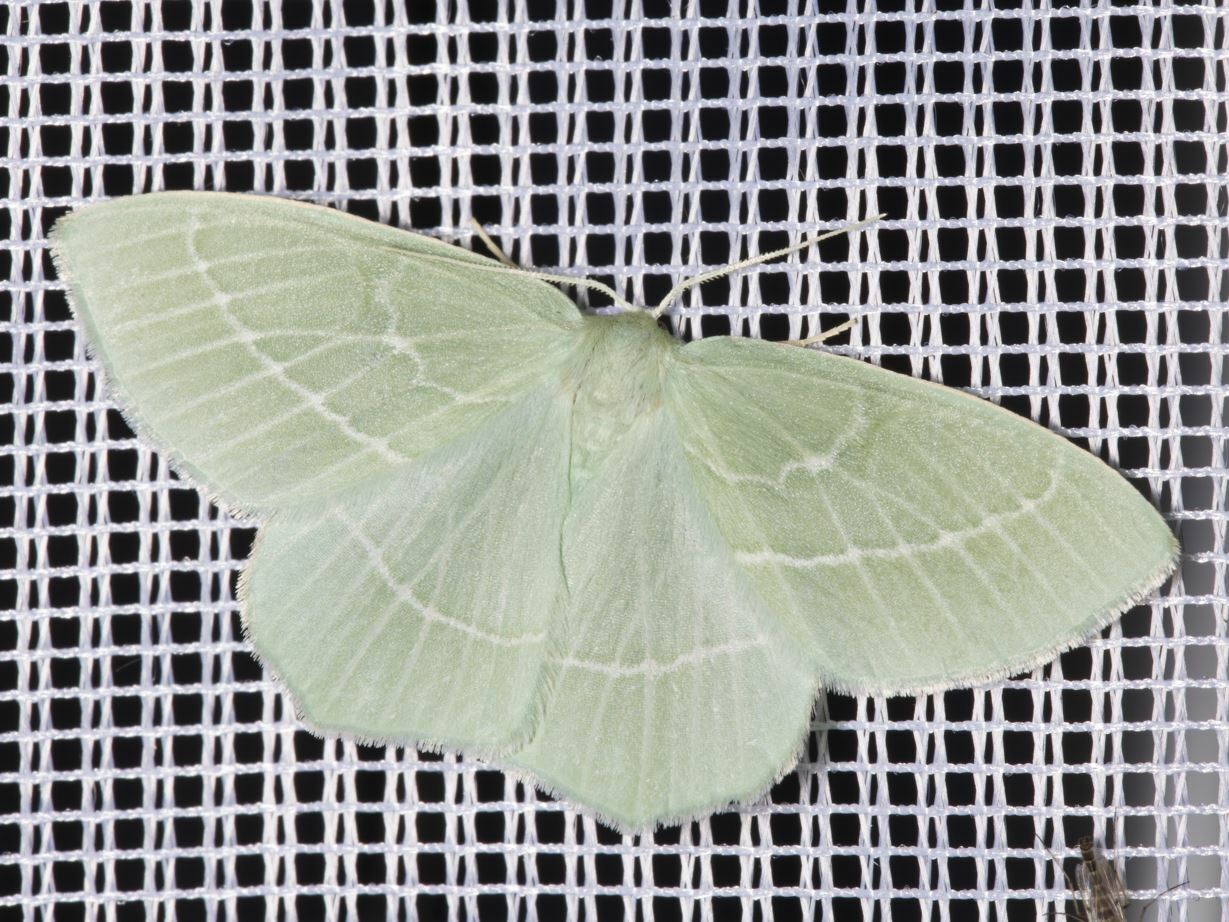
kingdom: Animalia
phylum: Arthropoda
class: Insecta
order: Lepidoptera
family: Geometridae
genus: Hemistola
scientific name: Hemistola chrysoprasaria
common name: Small emerald
